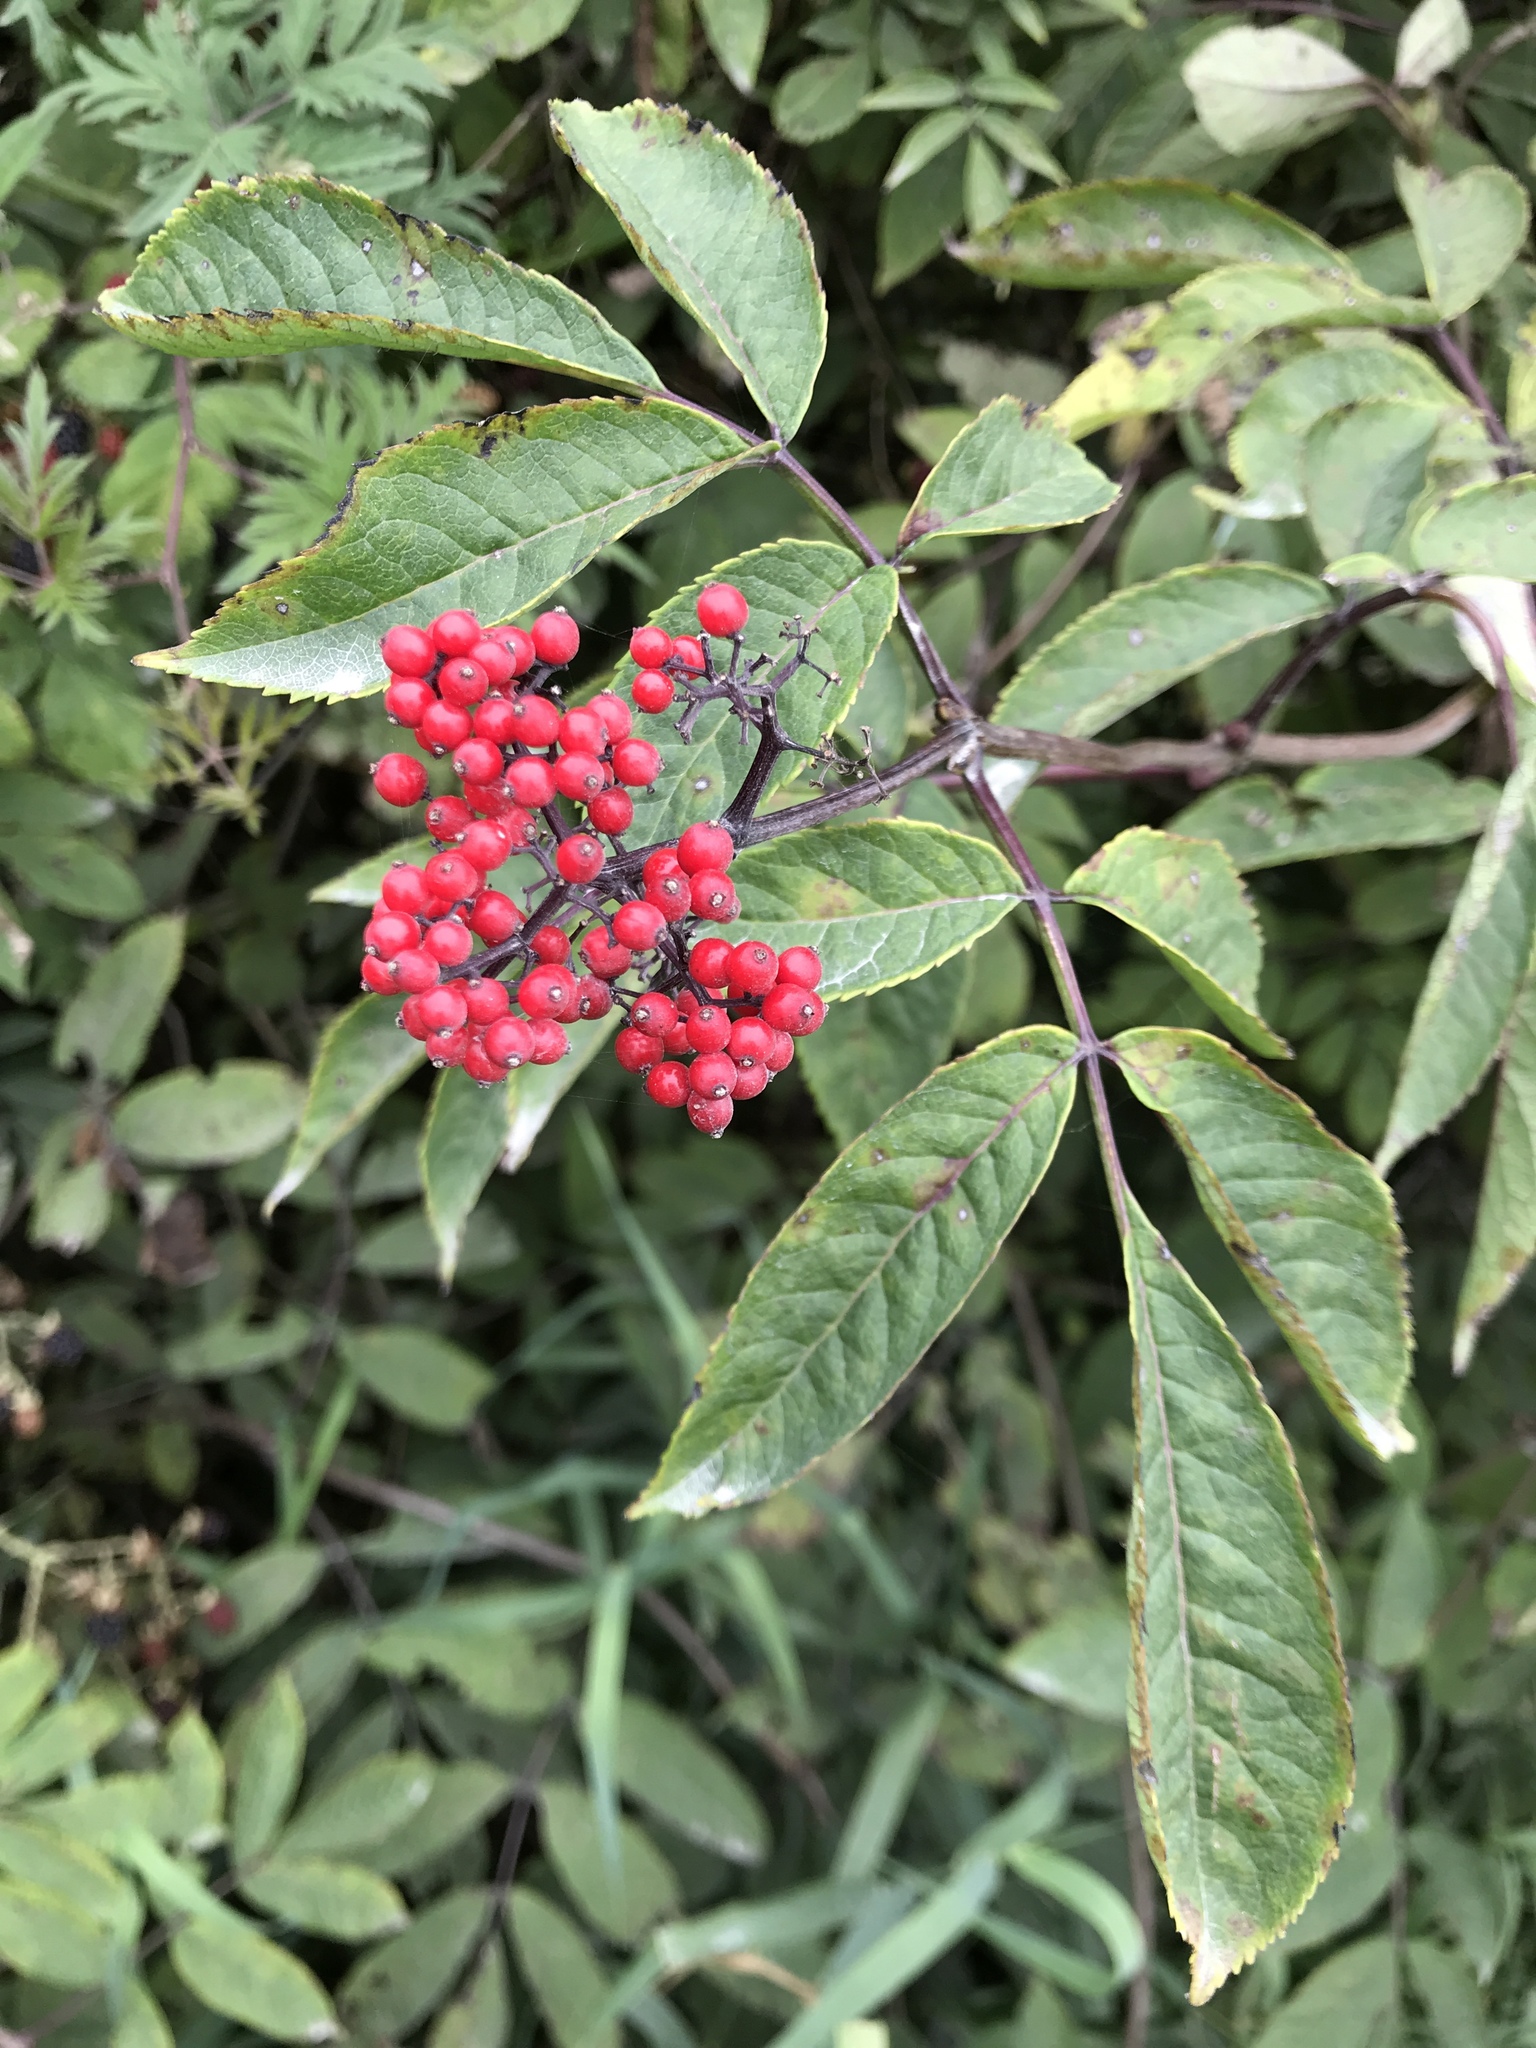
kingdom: Plantae
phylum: Tracheophyta
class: Magnoliopsida
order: Dipsacales
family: Viburnaceae
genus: Sambucus
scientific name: Sambucus racemosa
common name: Red-berried elder
